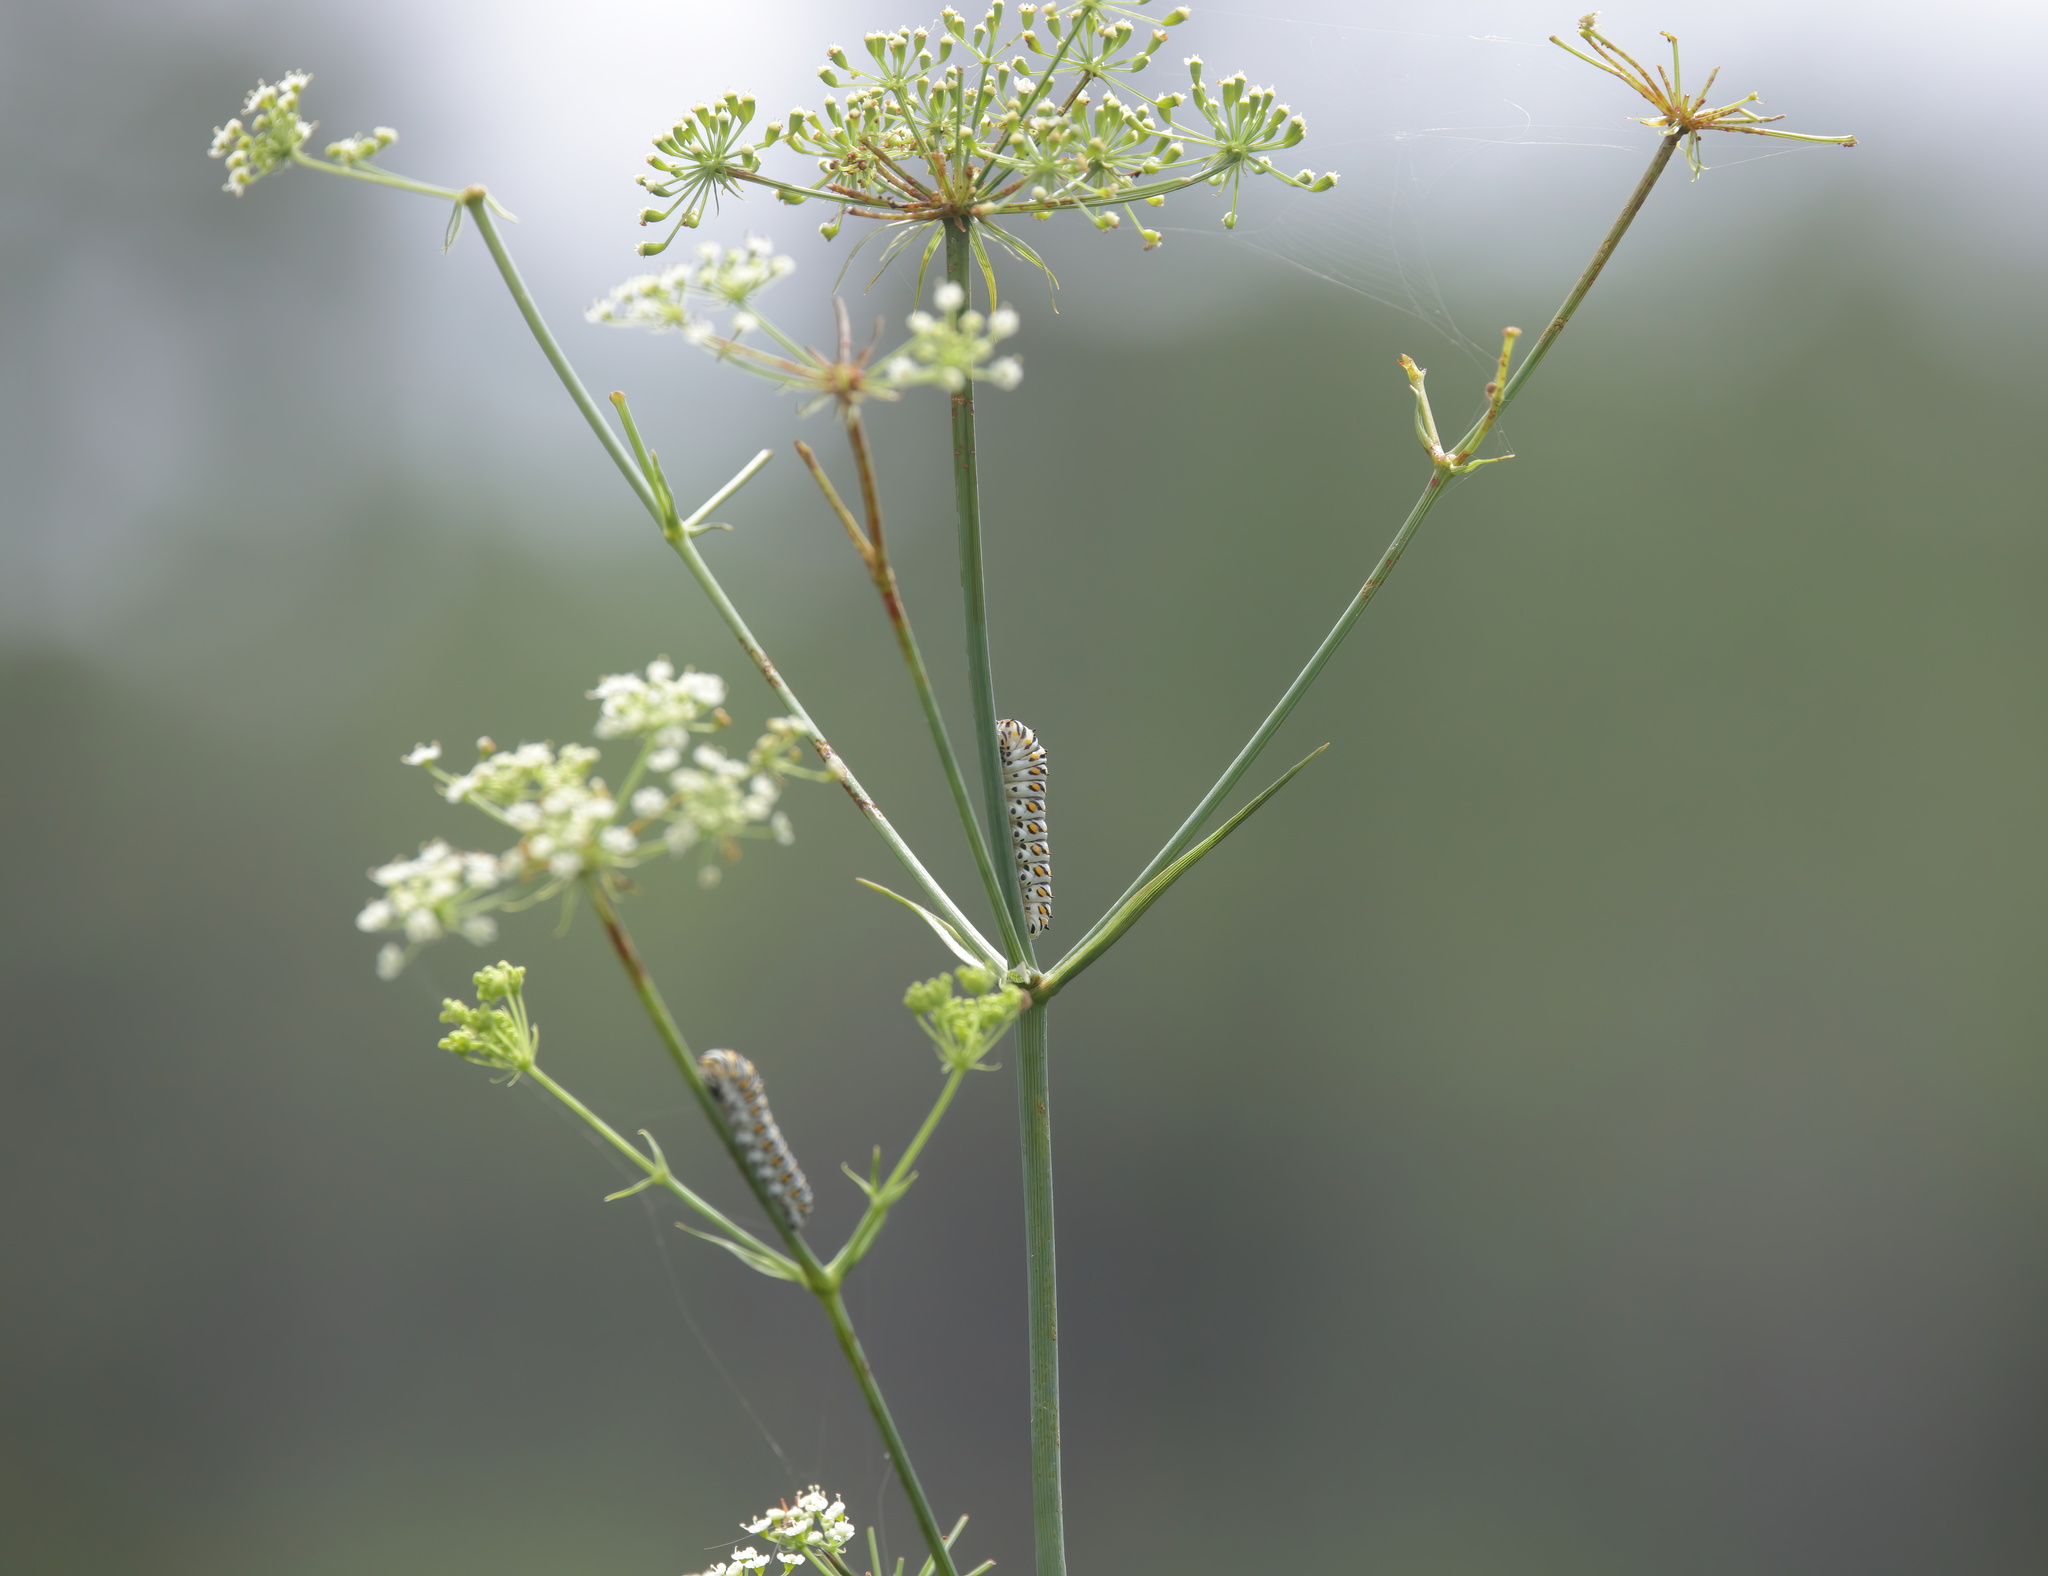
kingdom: Plantae
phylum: Tracheophyta
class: Magnoliopsida
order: Apiales
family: Apiaceae
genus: Tiedemannia
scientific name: Tiedemannia filiformis
